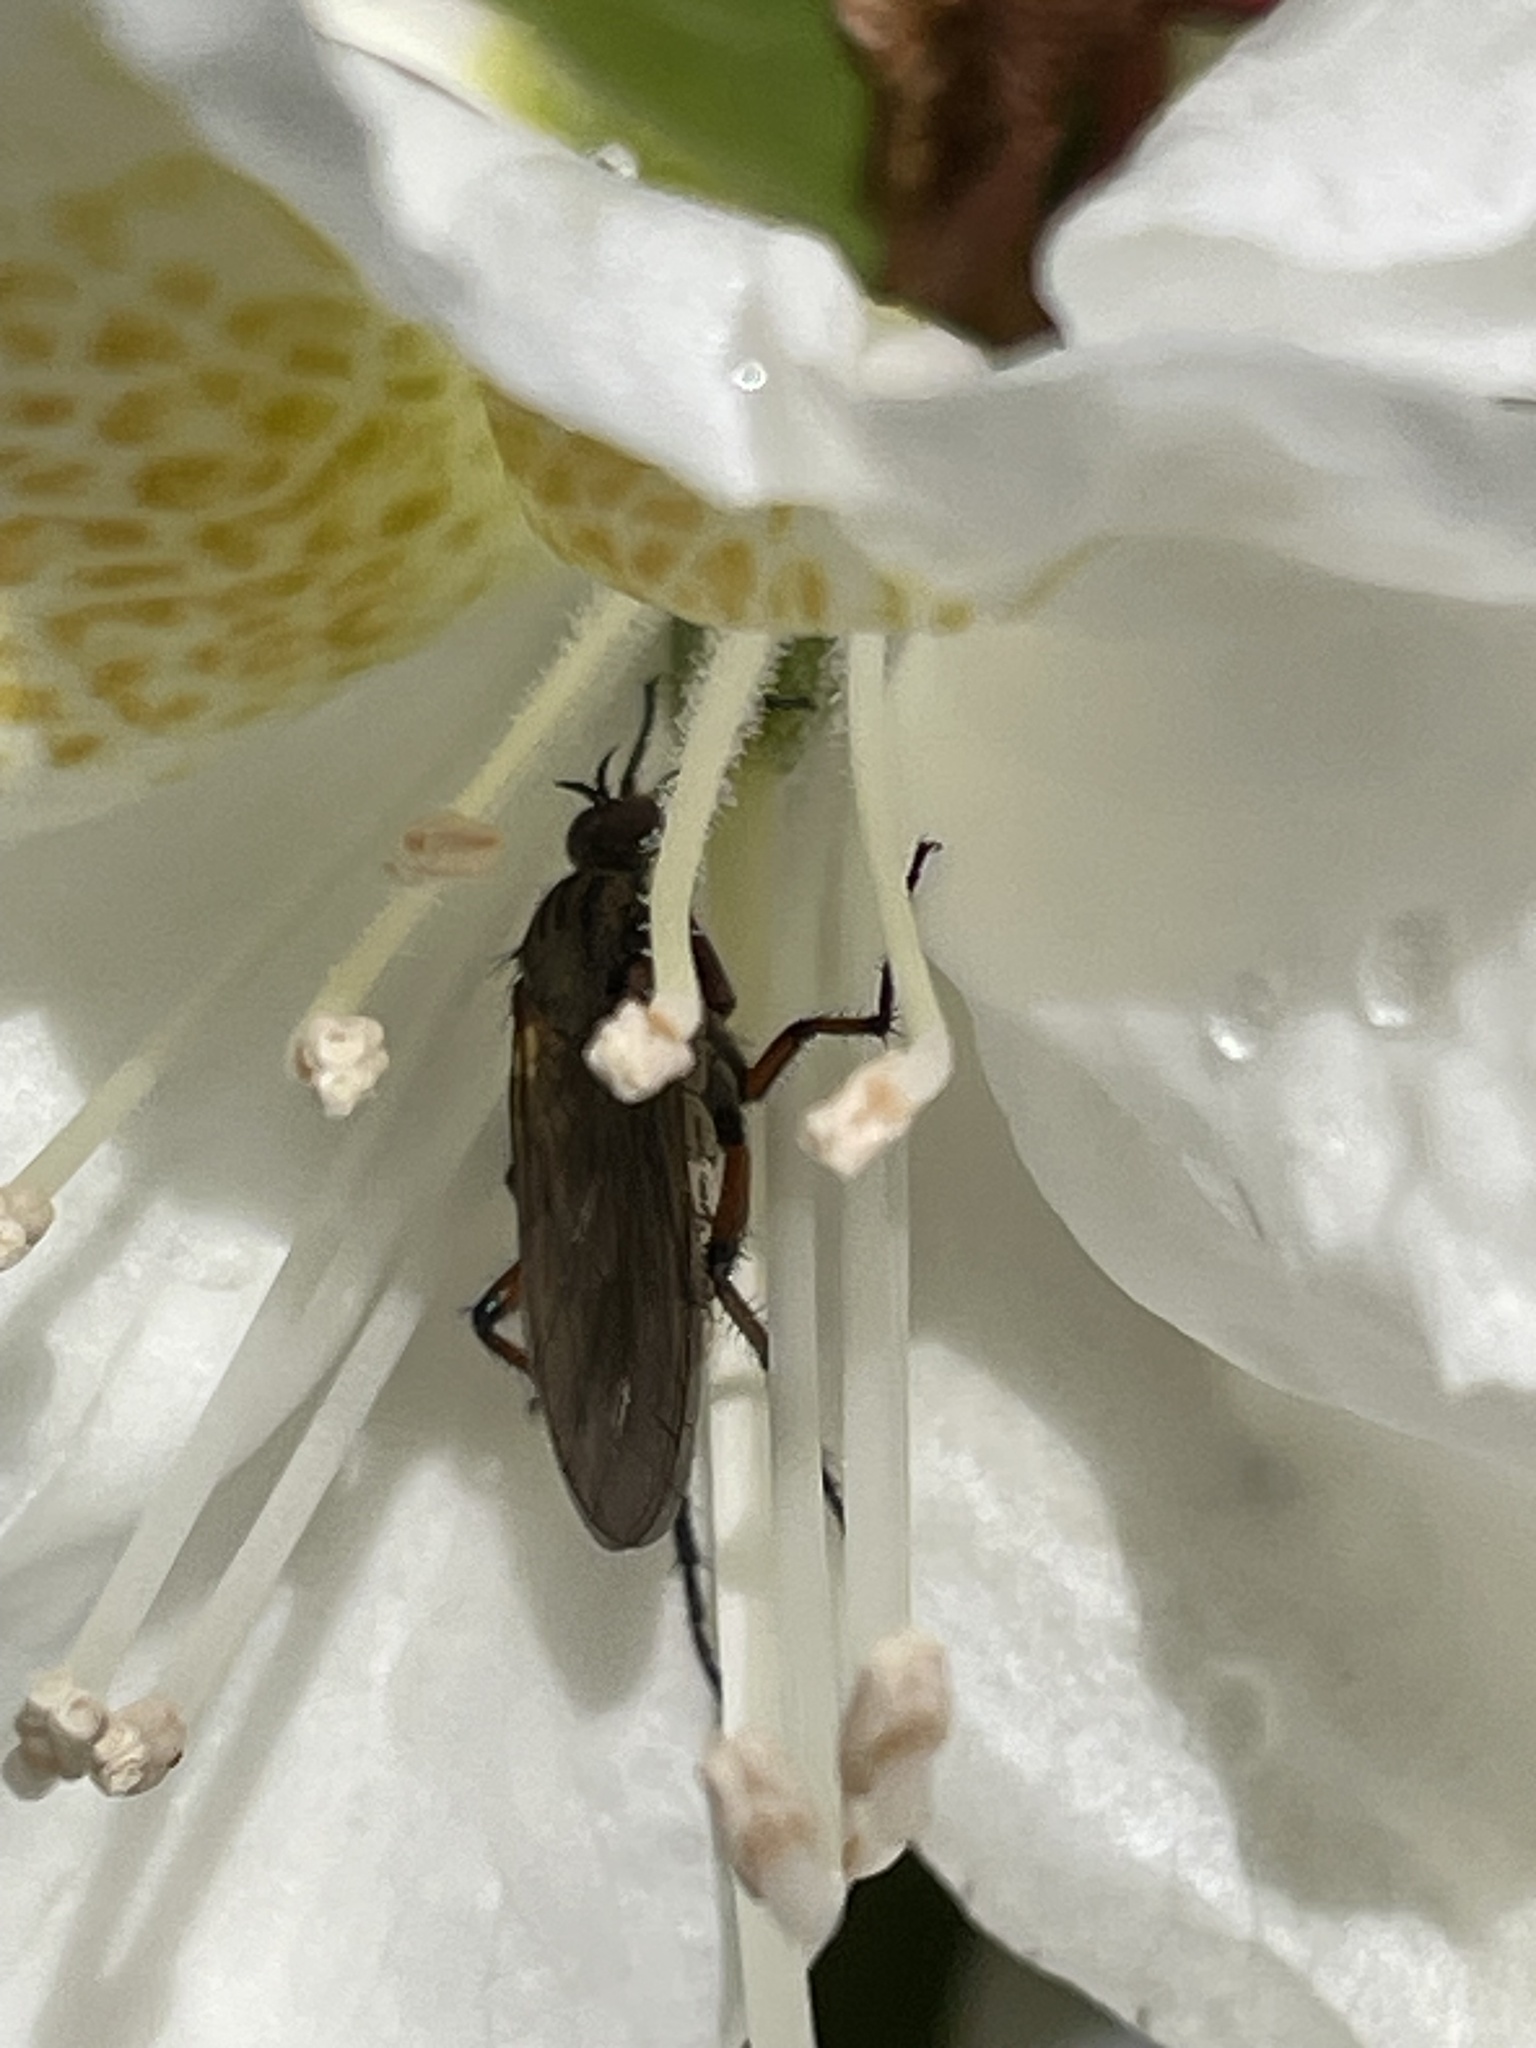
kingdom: Animalia
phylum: Arthropoda
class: Insecta
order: Diptera
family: Empididae
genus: Empis
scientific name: Empis opaca
